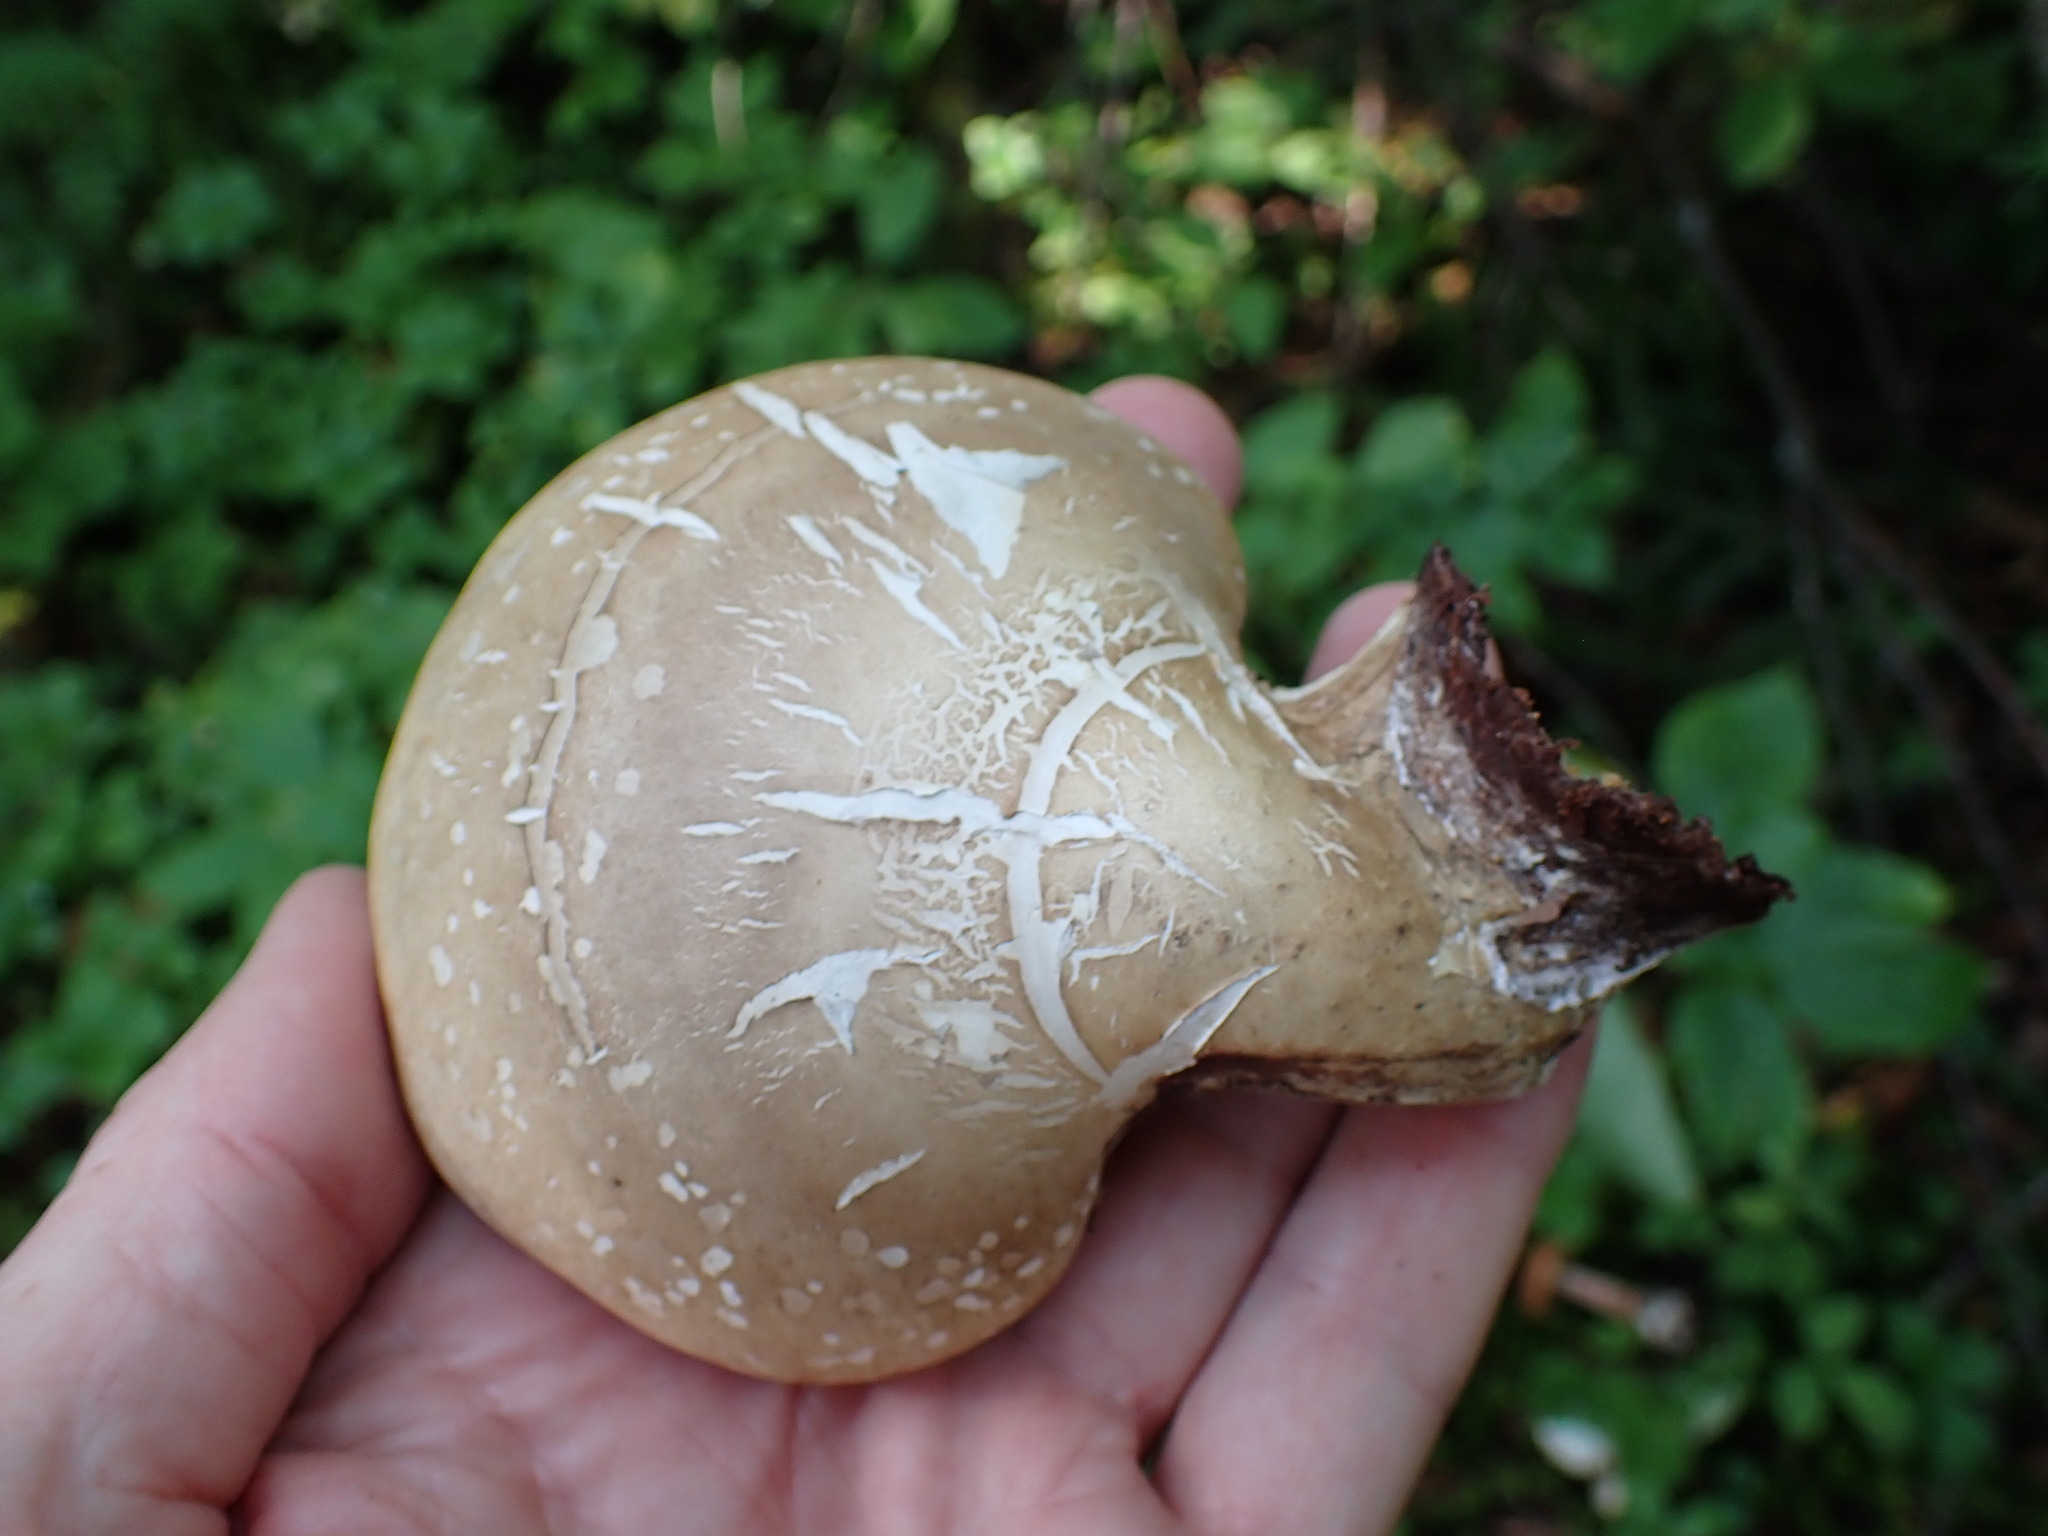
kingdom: Fungi
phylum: Basidiomycota
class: Agaricomycetes
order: Polyporales
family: Fomitopsidaceae
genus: Fomitopsis
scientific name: Fomitopsis betulina
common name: Birch polypore
